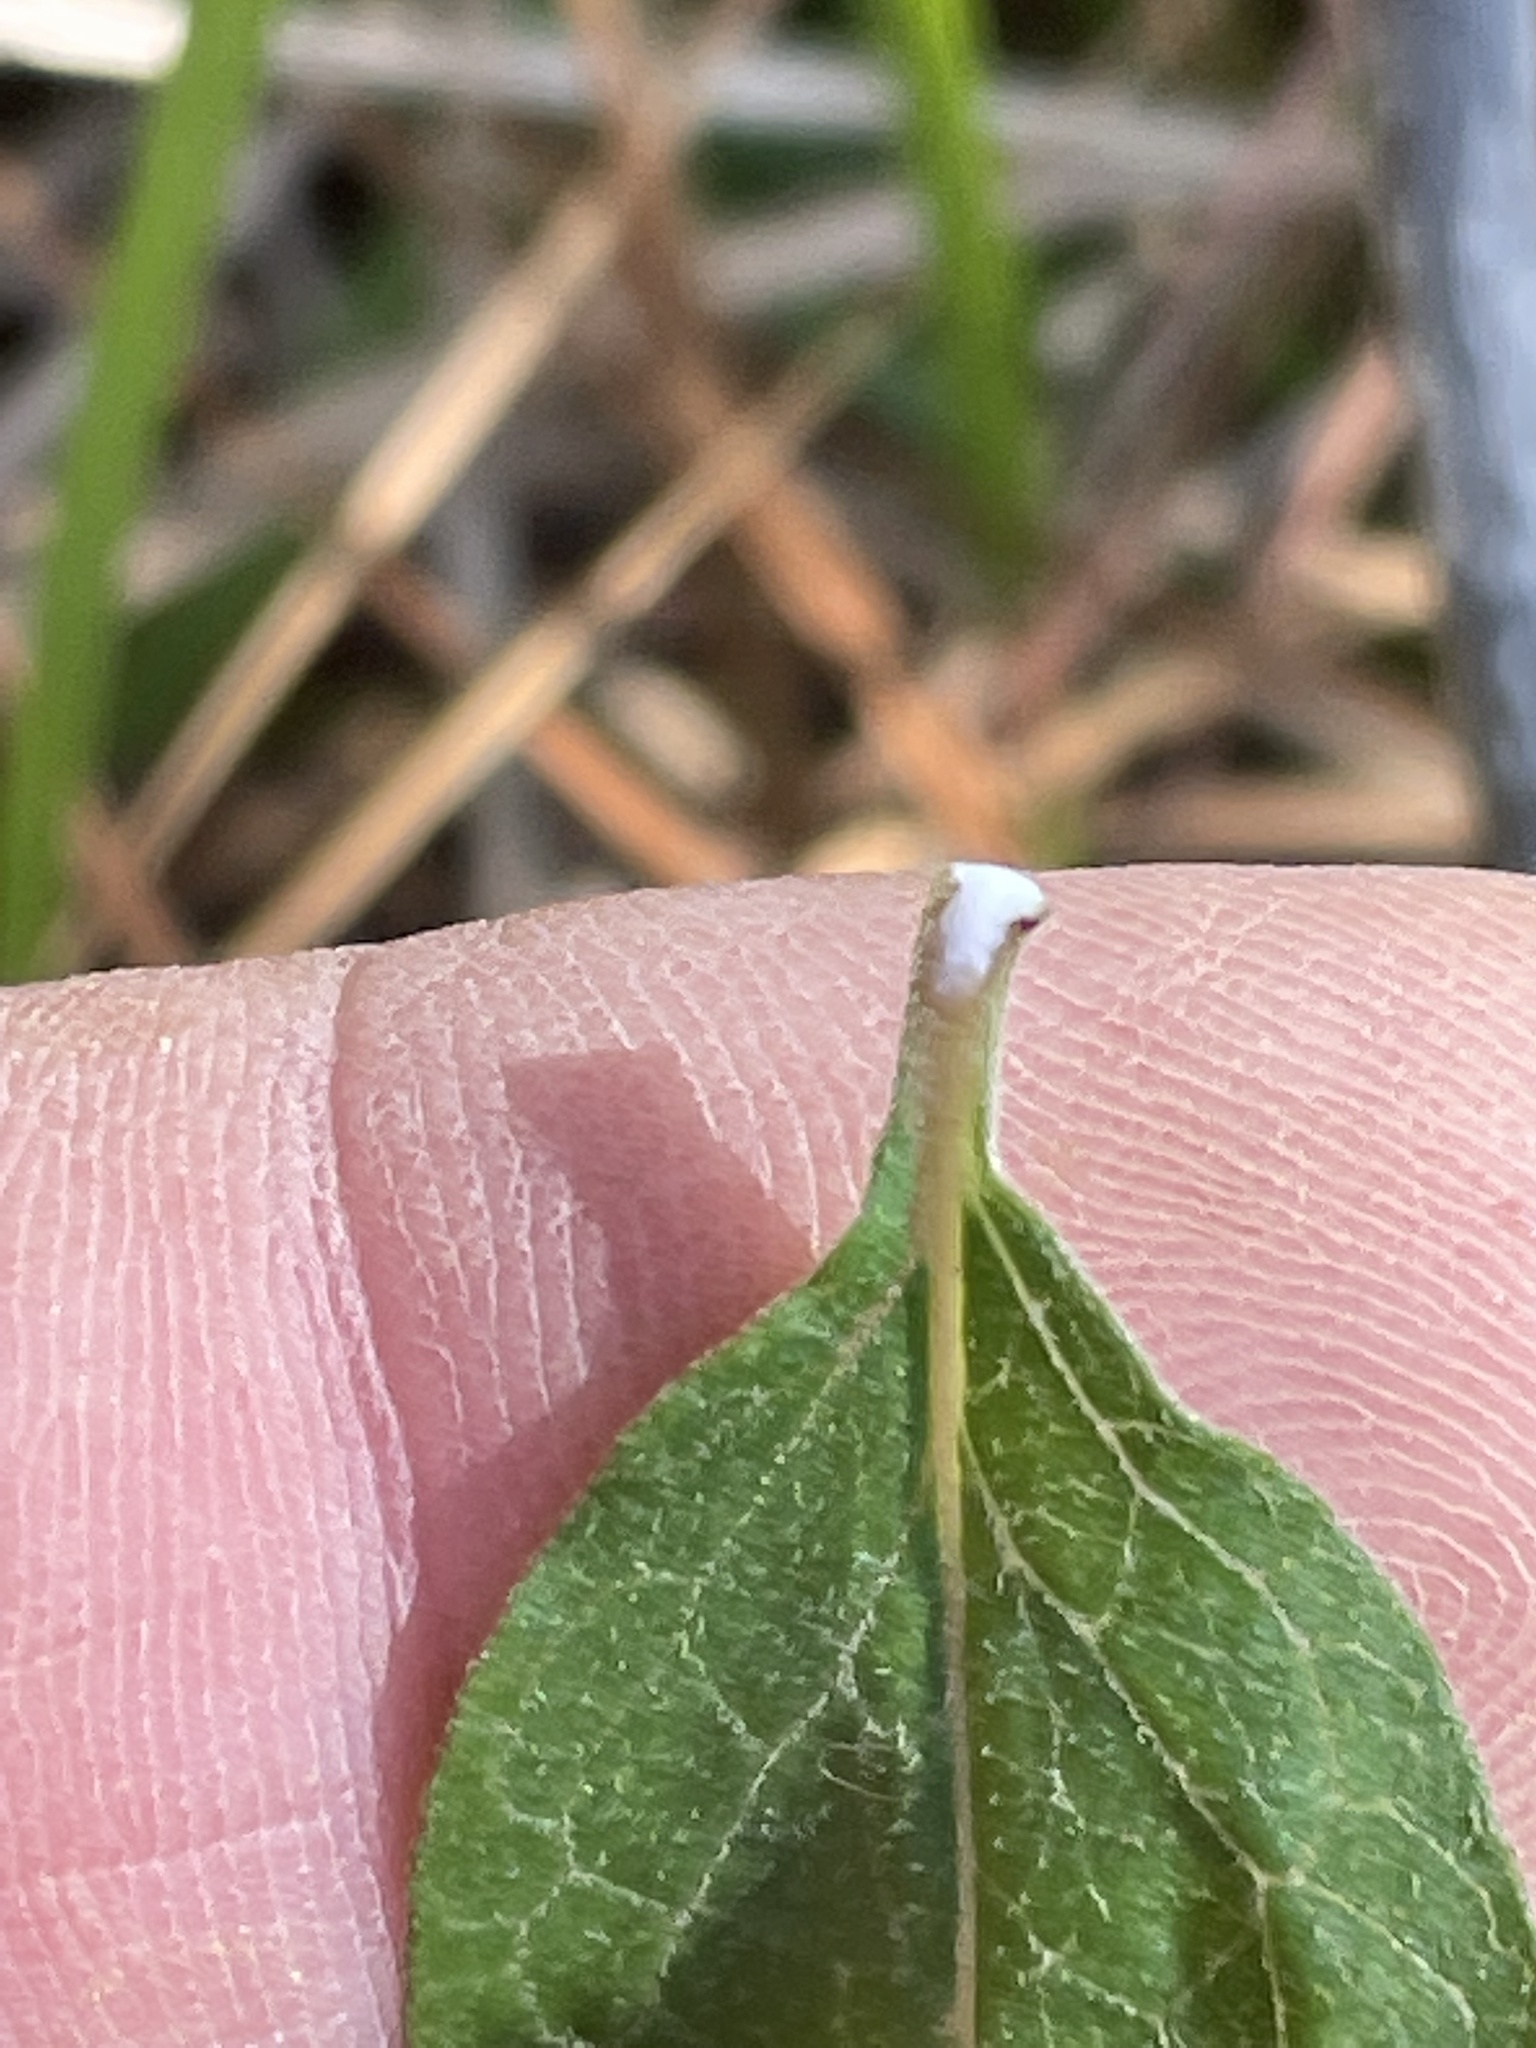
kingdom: Plantae
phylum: Tracheophyta
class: Magnoliopsida
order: Gentianales
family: Apocynaceae
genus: Asclepias
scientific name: Asclepias tomentosa
